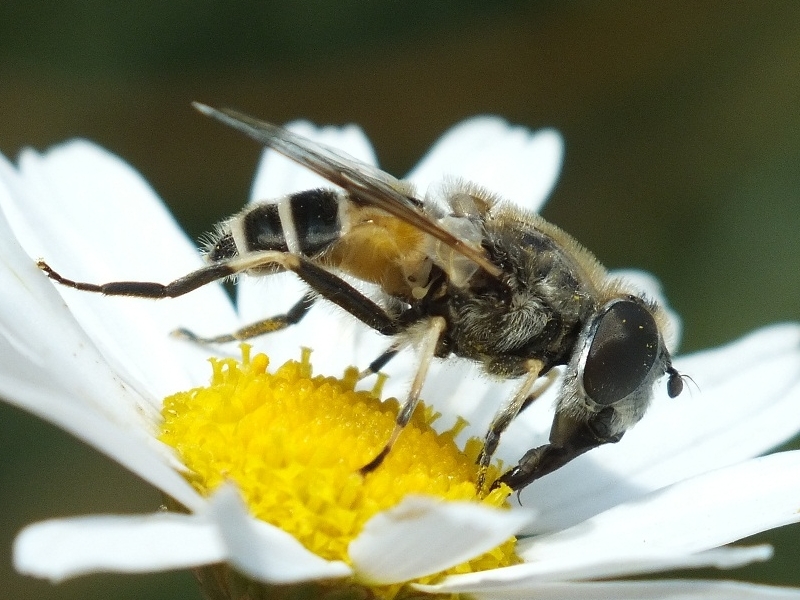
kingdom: Animalia
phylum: Arthropoda
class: Insecta
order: Diptera
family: Syrphidae
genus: Eristalis
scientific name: Eristalis arbustorum
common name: Hover fly
